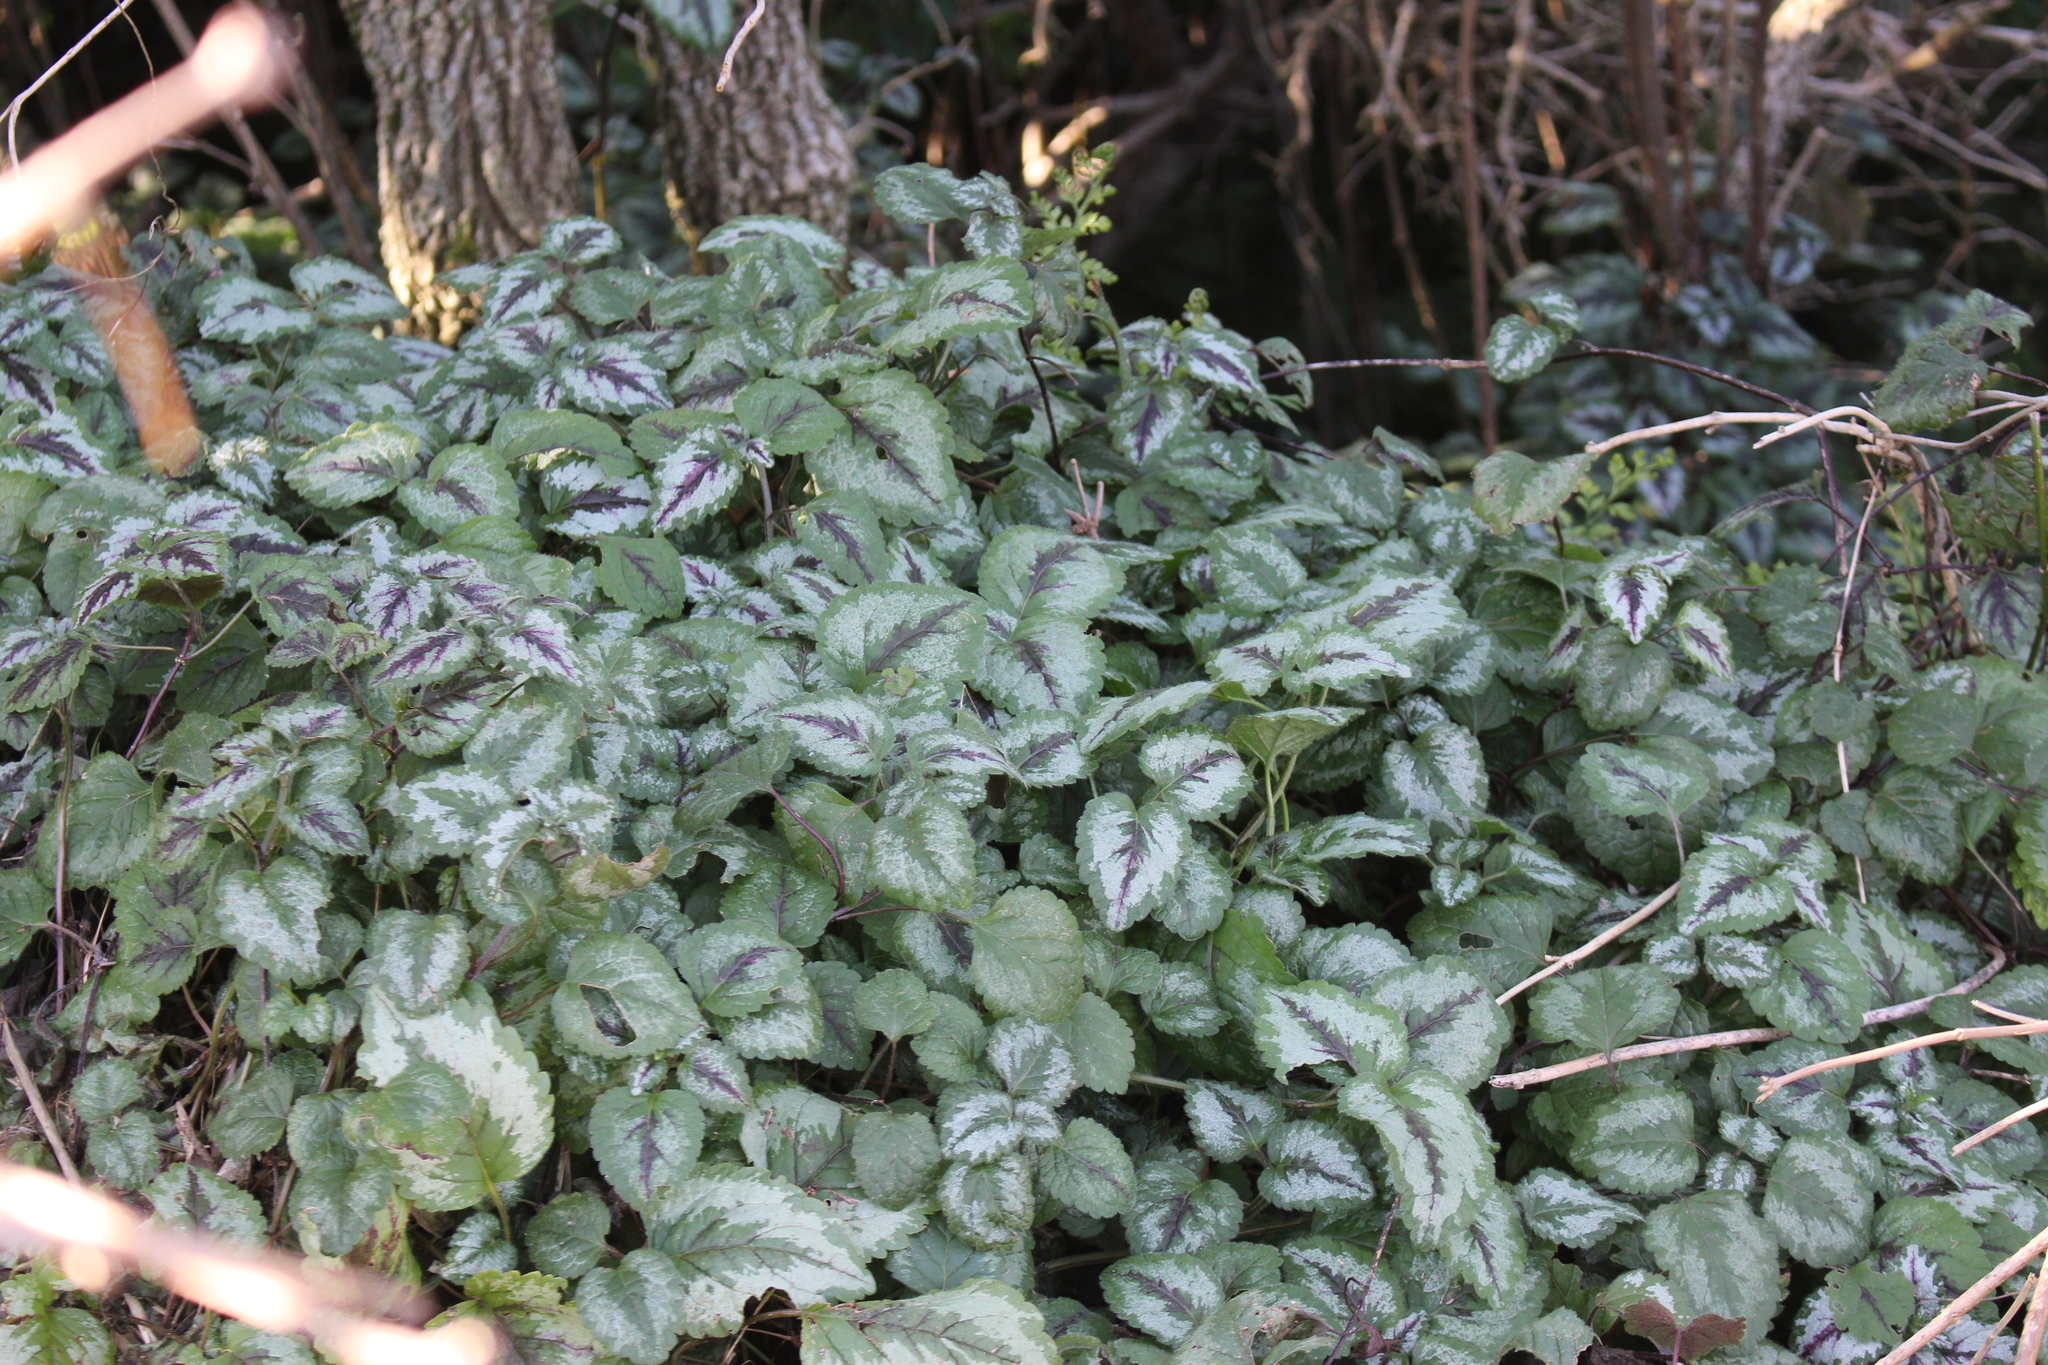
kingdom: Plantae
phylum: Tracheophyta
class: Magnoliopsida
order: Lamiales
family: Lamiaceae
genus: Lamium
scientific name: Lamium galeobdolon
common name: Yellow archangel
